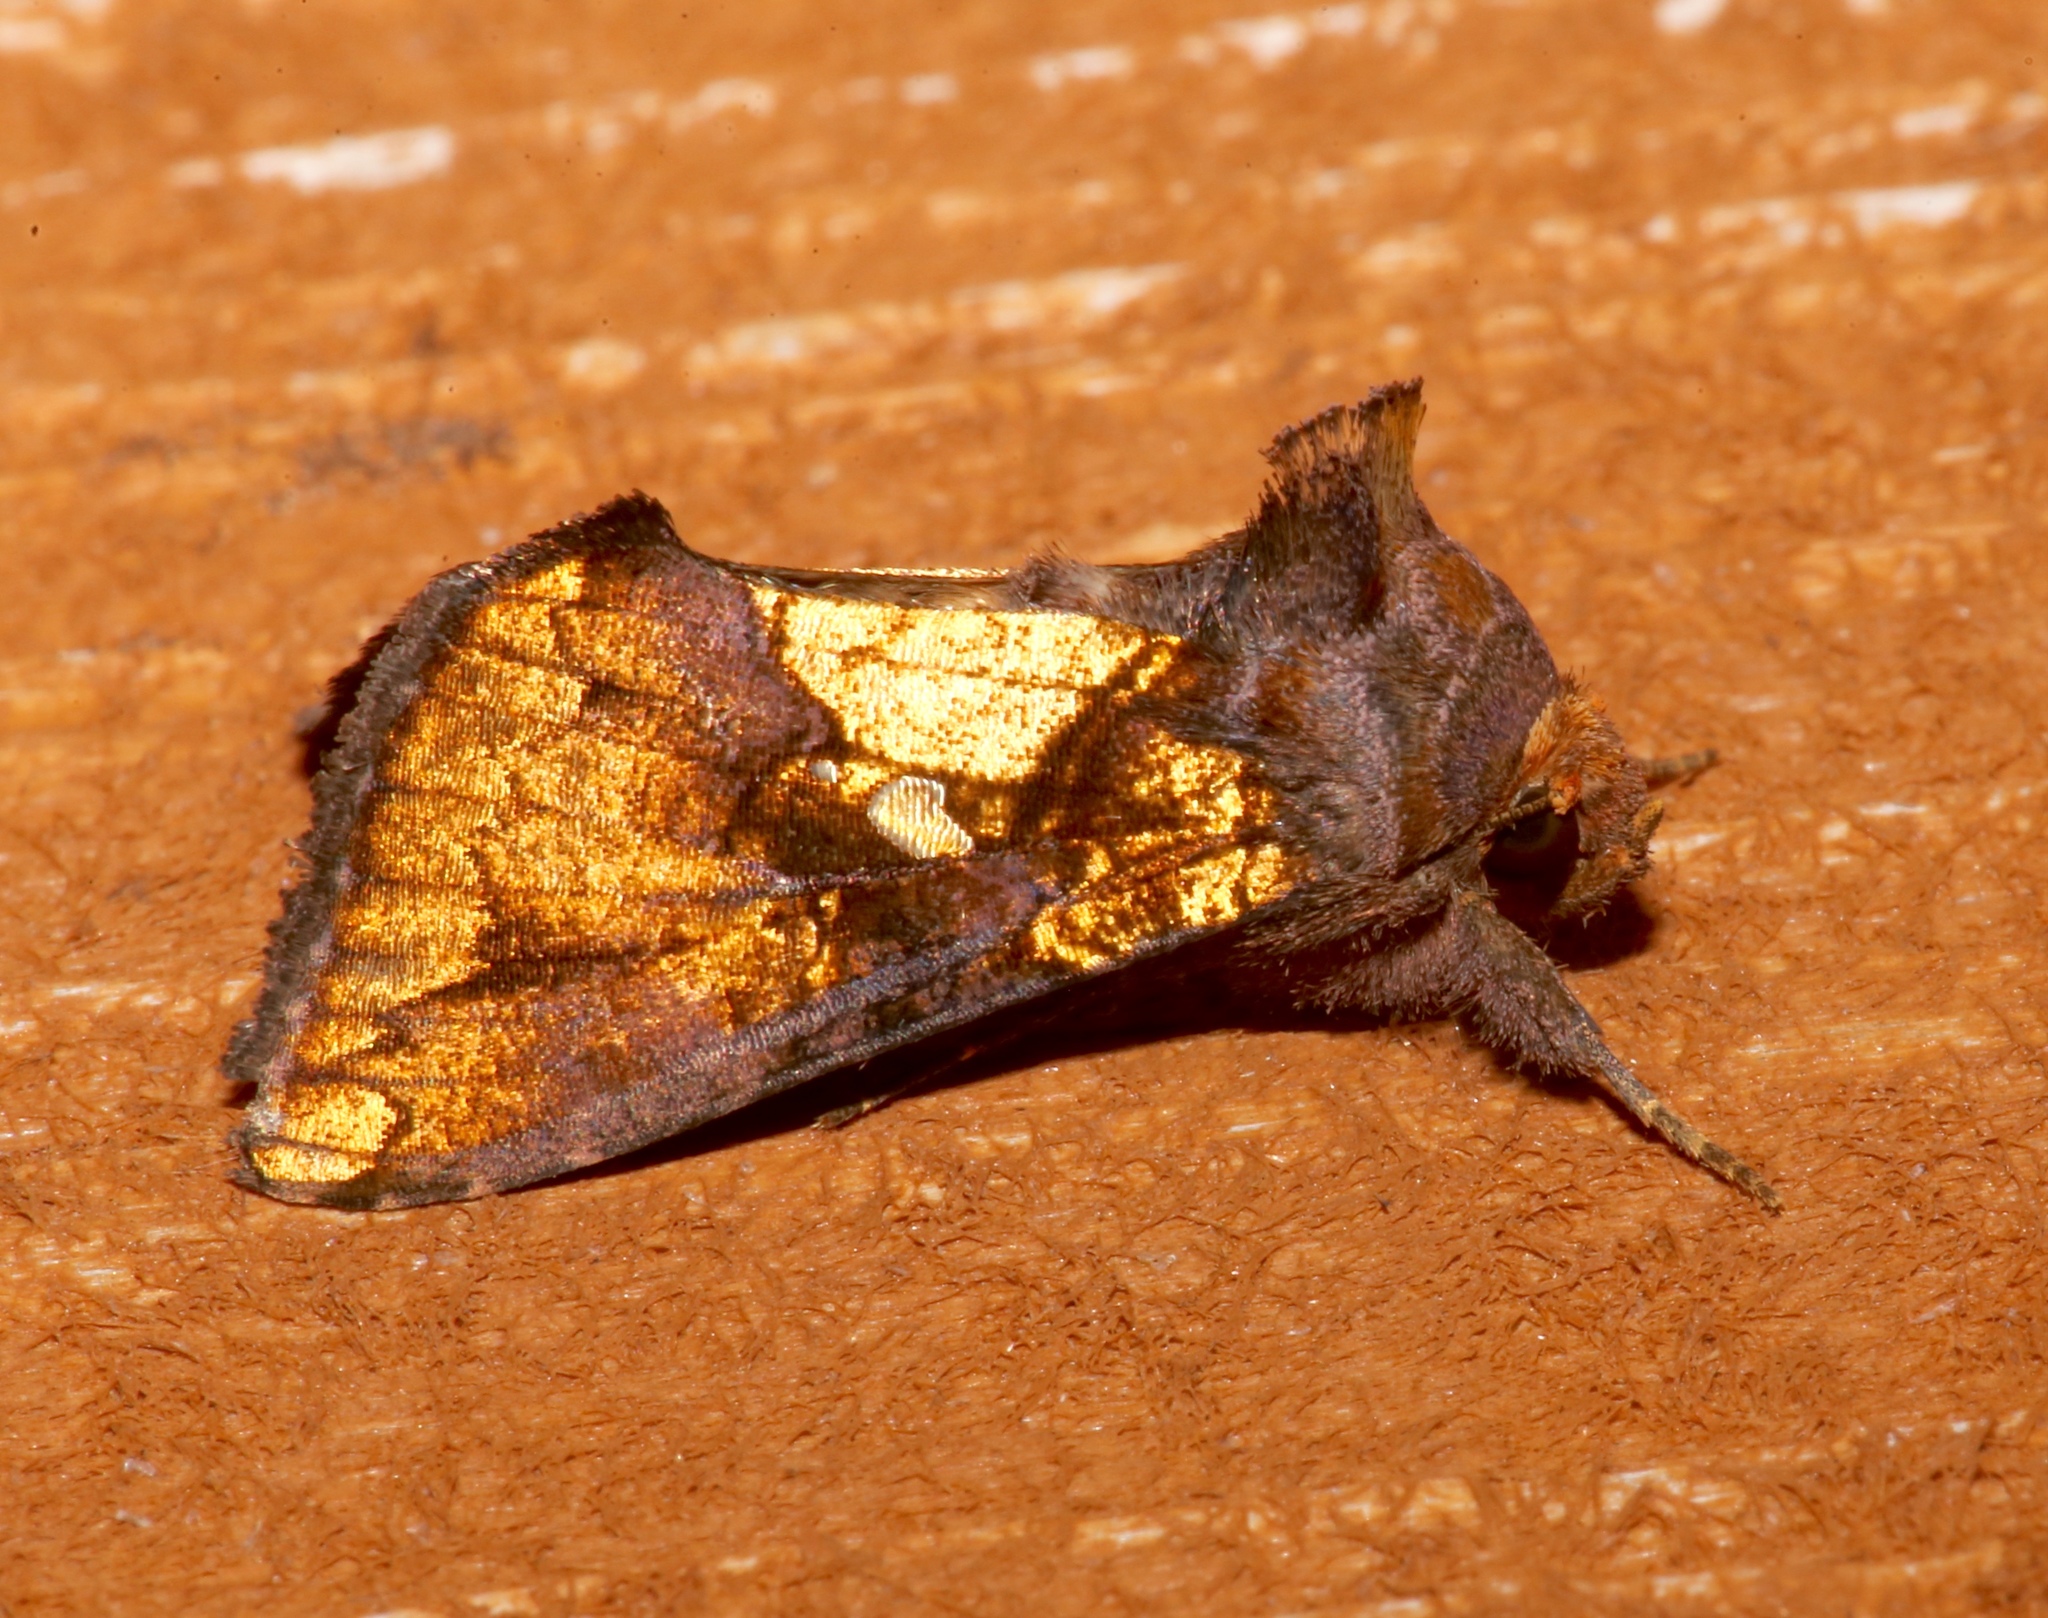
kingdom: Animalia
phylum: Arthropoda
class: Insecta
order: Lepidoptera
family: Noctuidae
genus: Argyrogramma
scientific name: Argyrogramma verruca
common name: Golden looper moth
